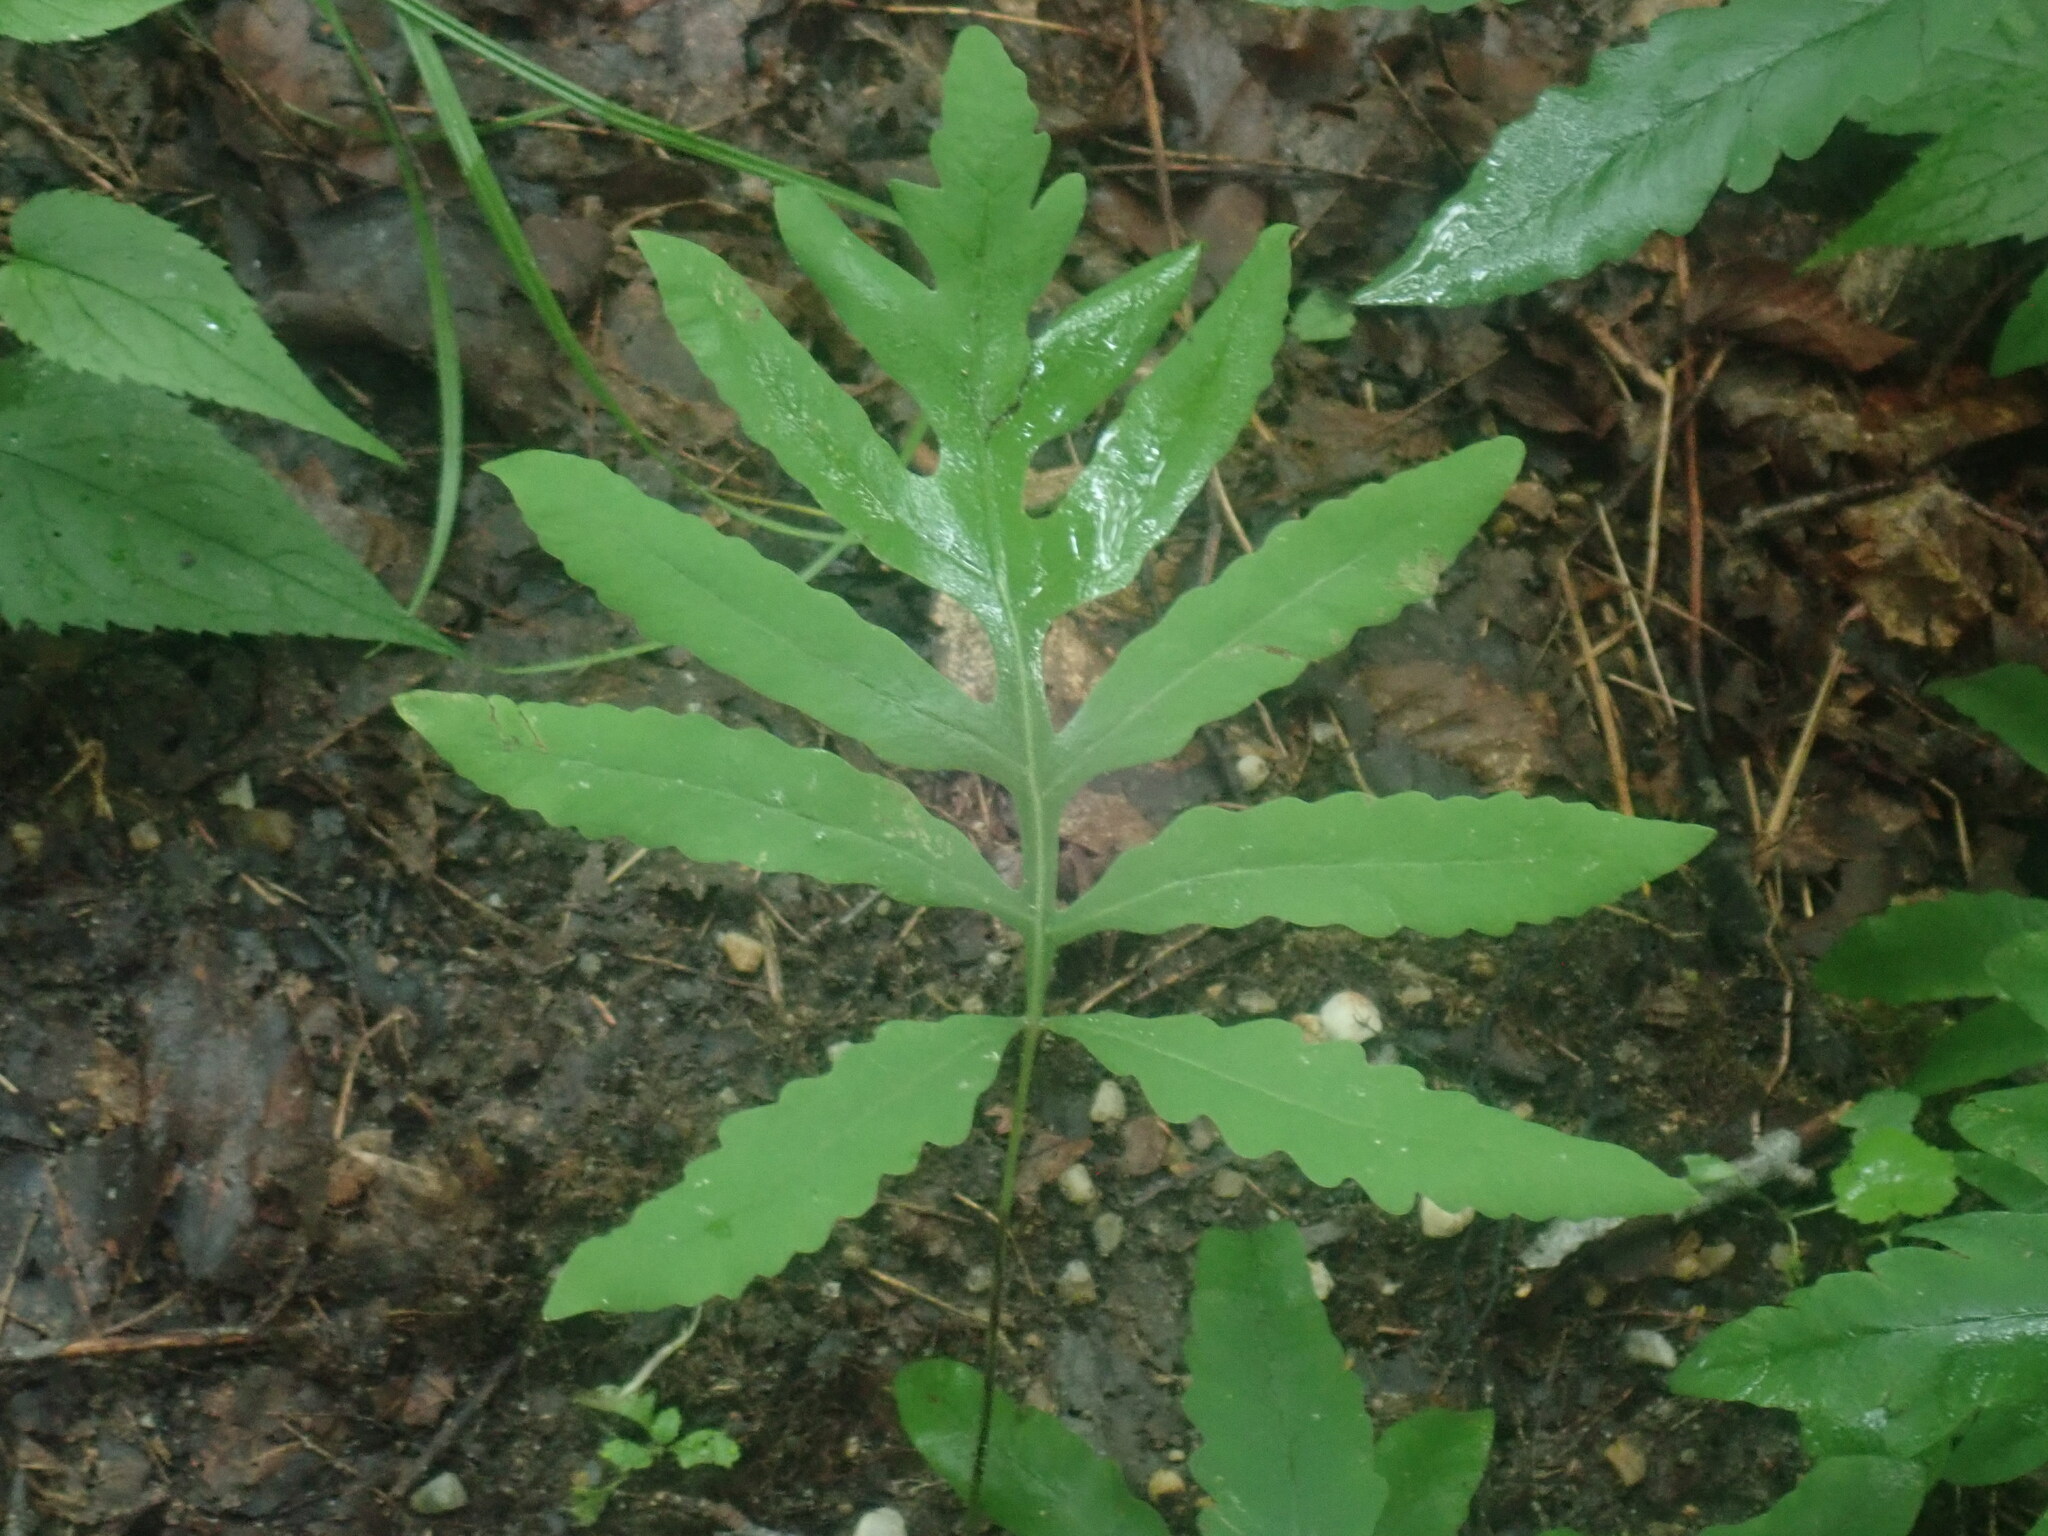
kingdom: Plantae
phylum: Tracheophyta
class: Polypodiopsida
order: Polypodiales
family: Onocleaceae
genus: Onoclea
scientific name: Onoclea sensibilis
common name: Sensitive fern
